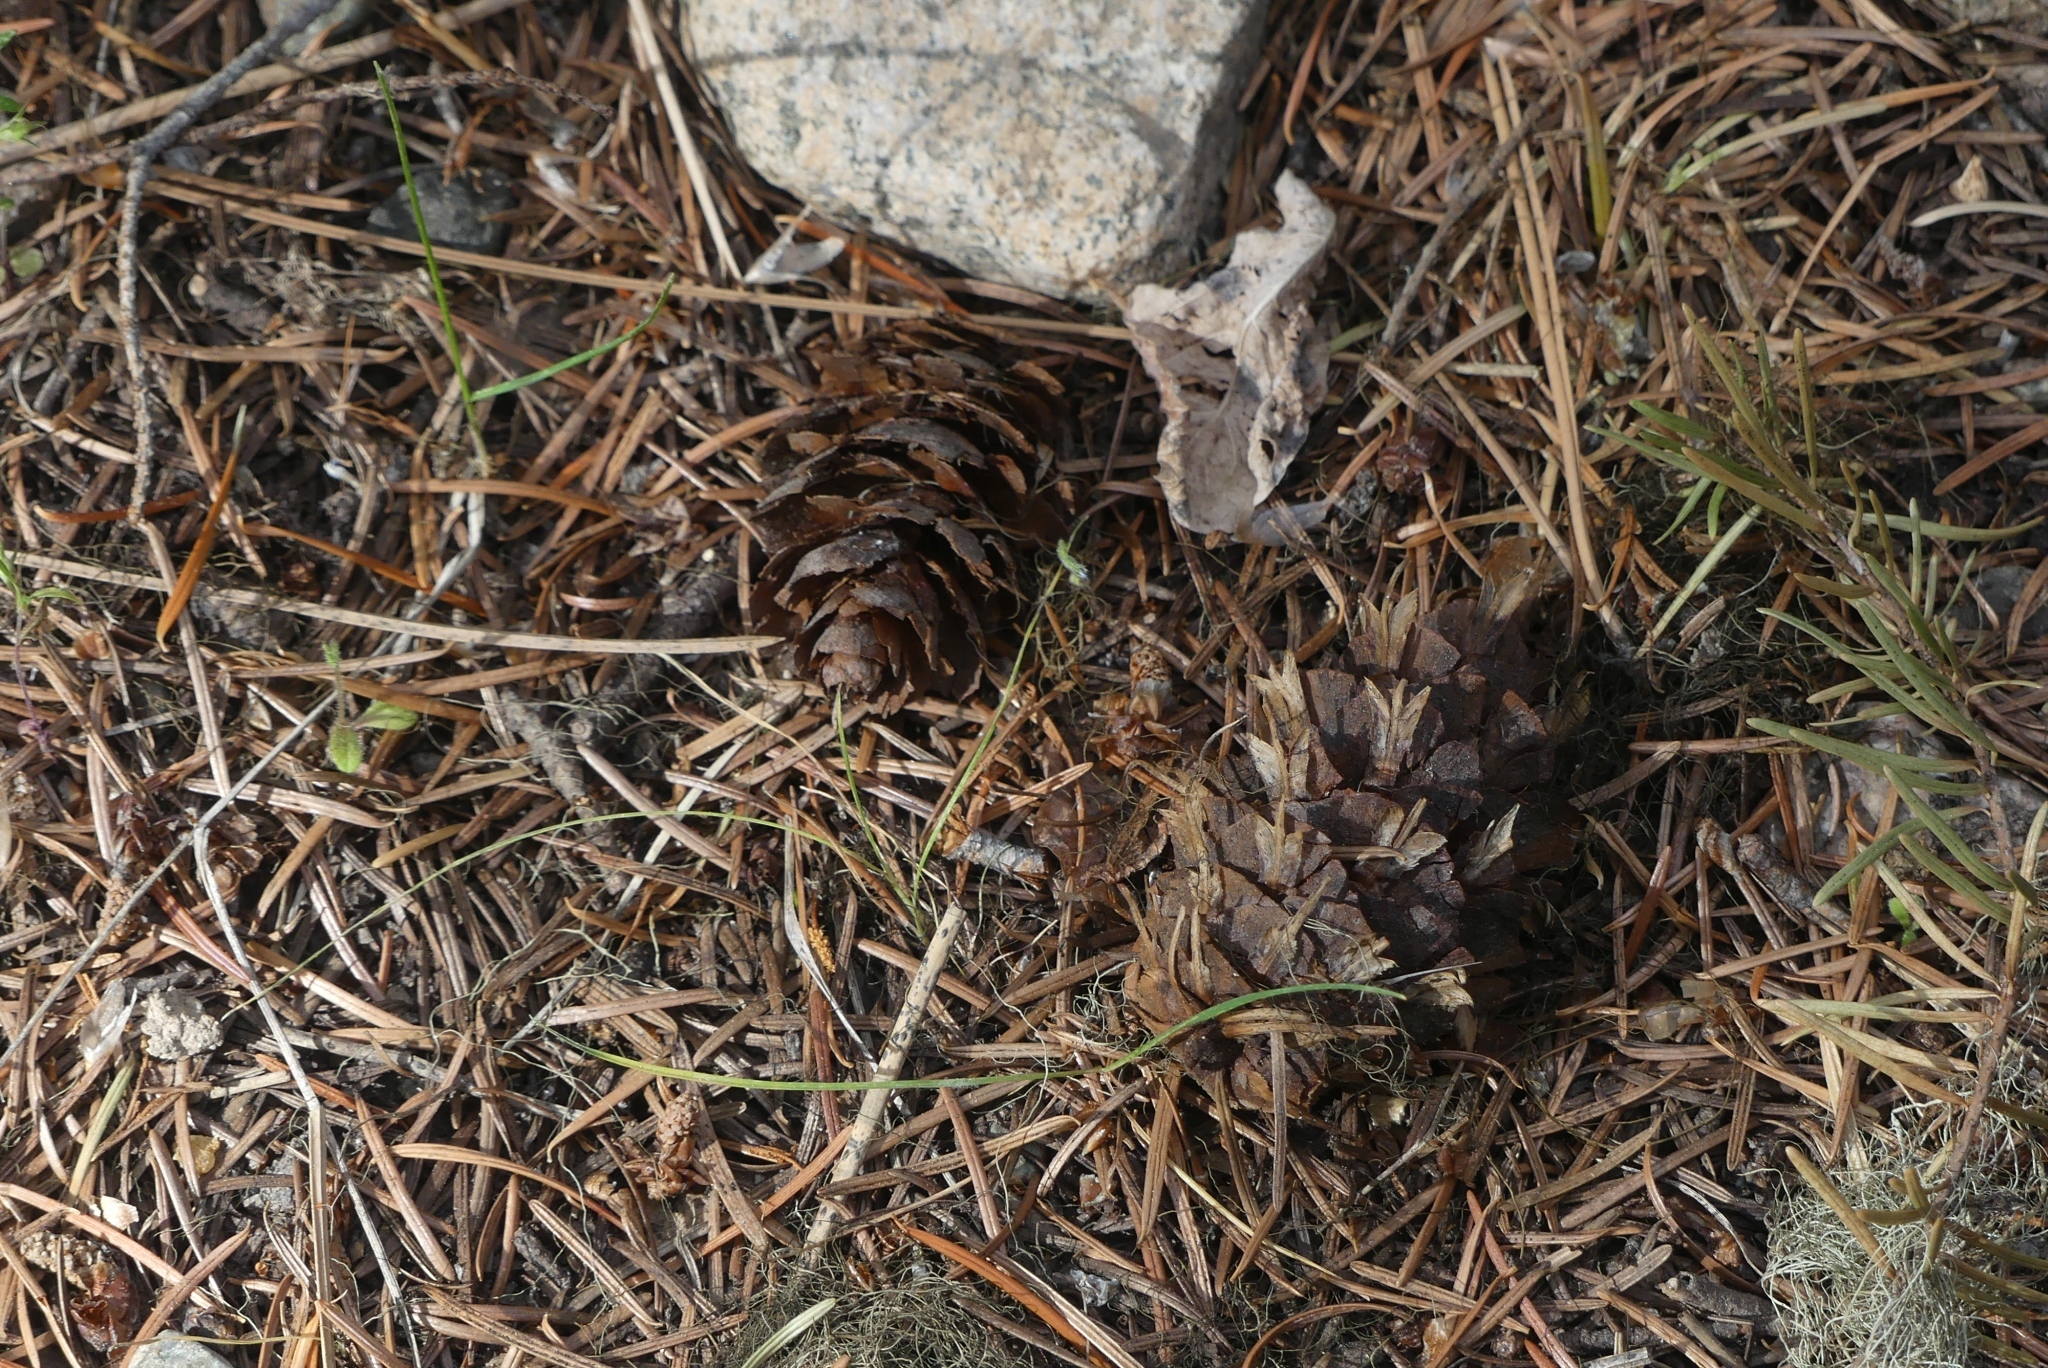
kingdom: Plantae
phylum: Tracheophyta
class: Pinopsida
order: Pinales
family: Pinaceae
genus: Pseudotsuga
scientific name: Pseudotsuga menziesii
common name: Douglas fir
